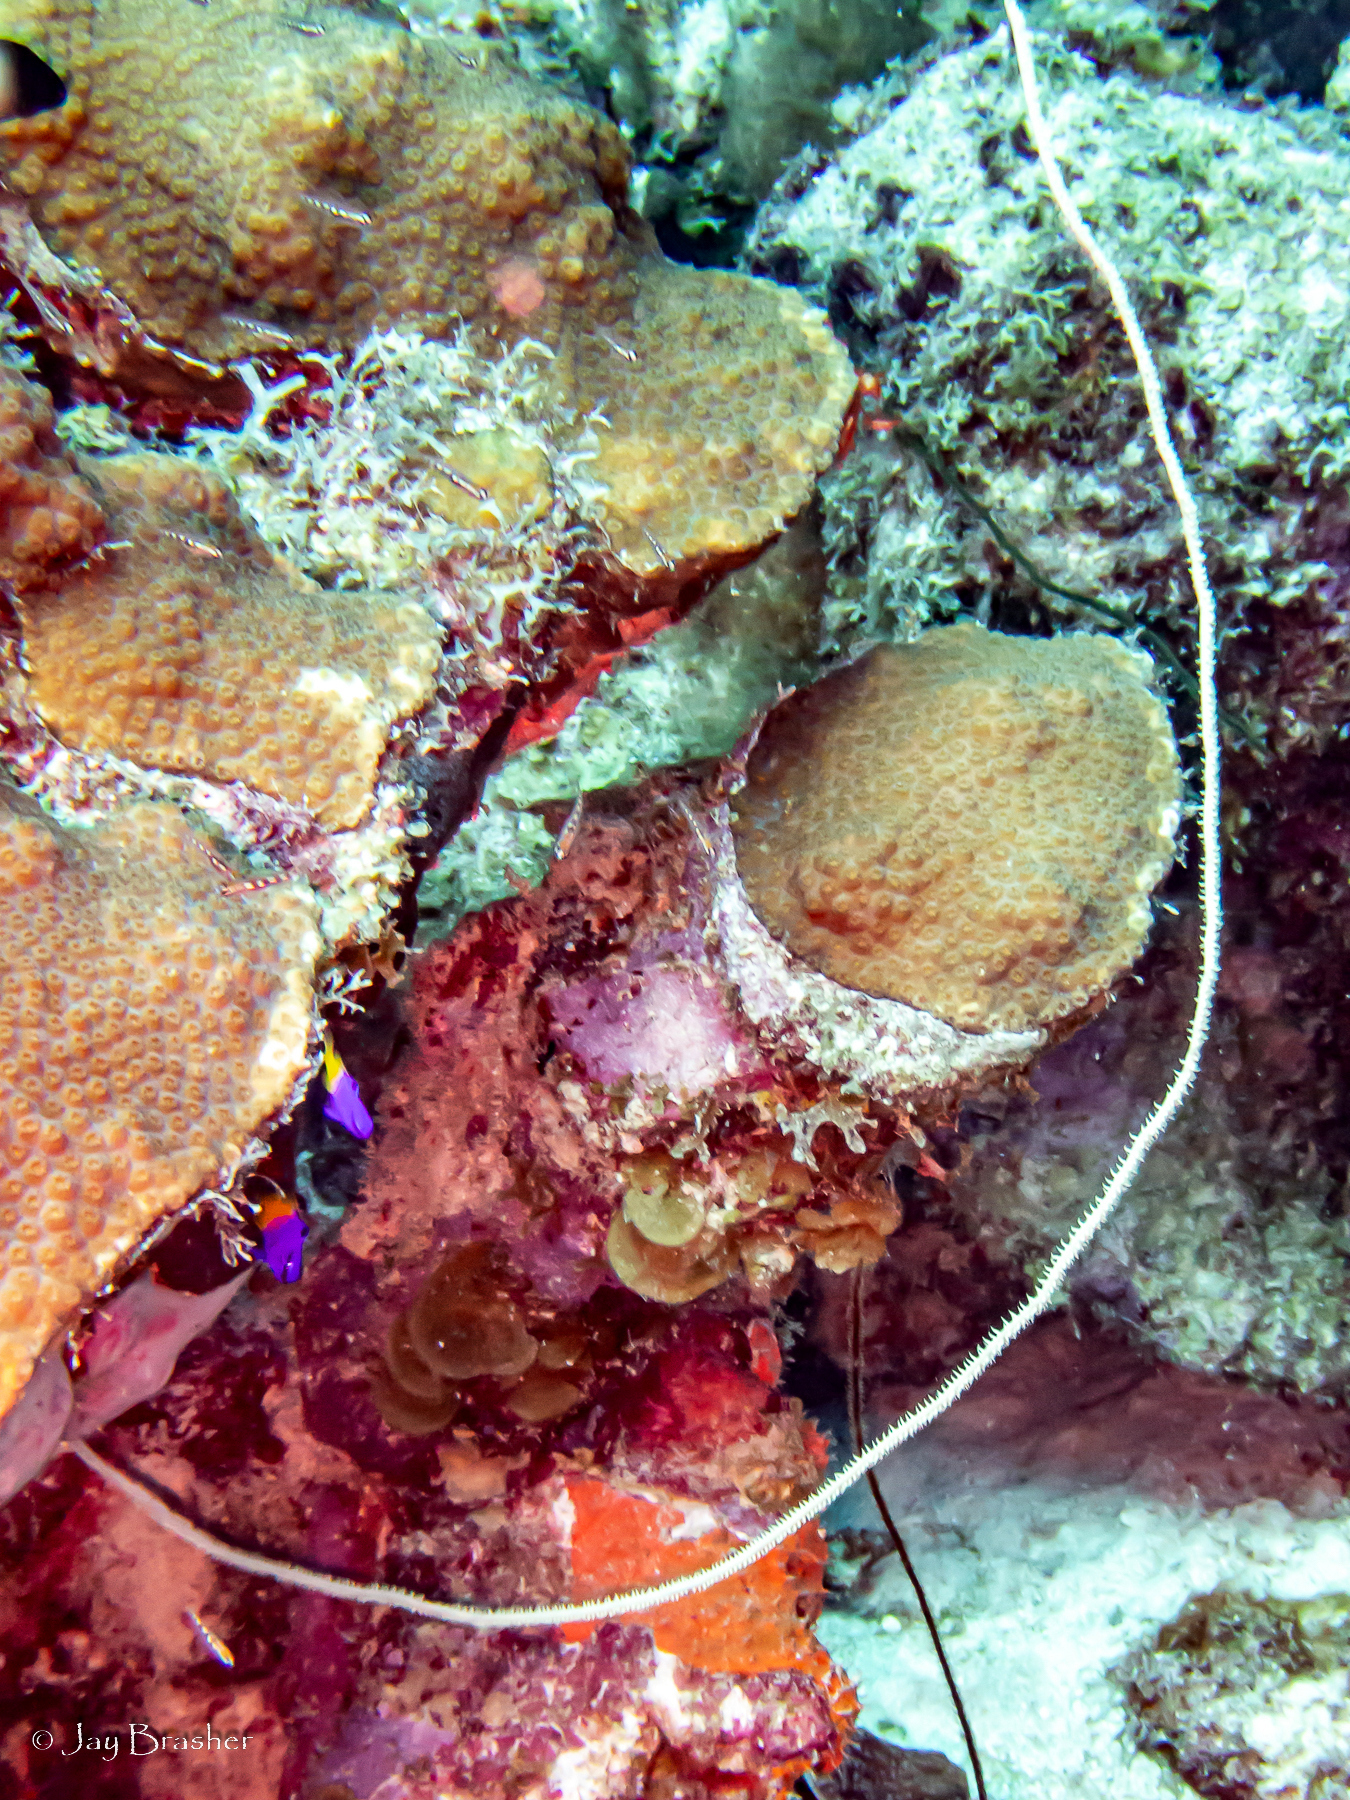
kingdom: Animalia
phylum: Cnidaria
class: Anthozoa
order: Antipatharia
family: Antipathidae
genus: Stichopathes
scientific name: Stichopathes luetkeni
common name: Black wire coral
